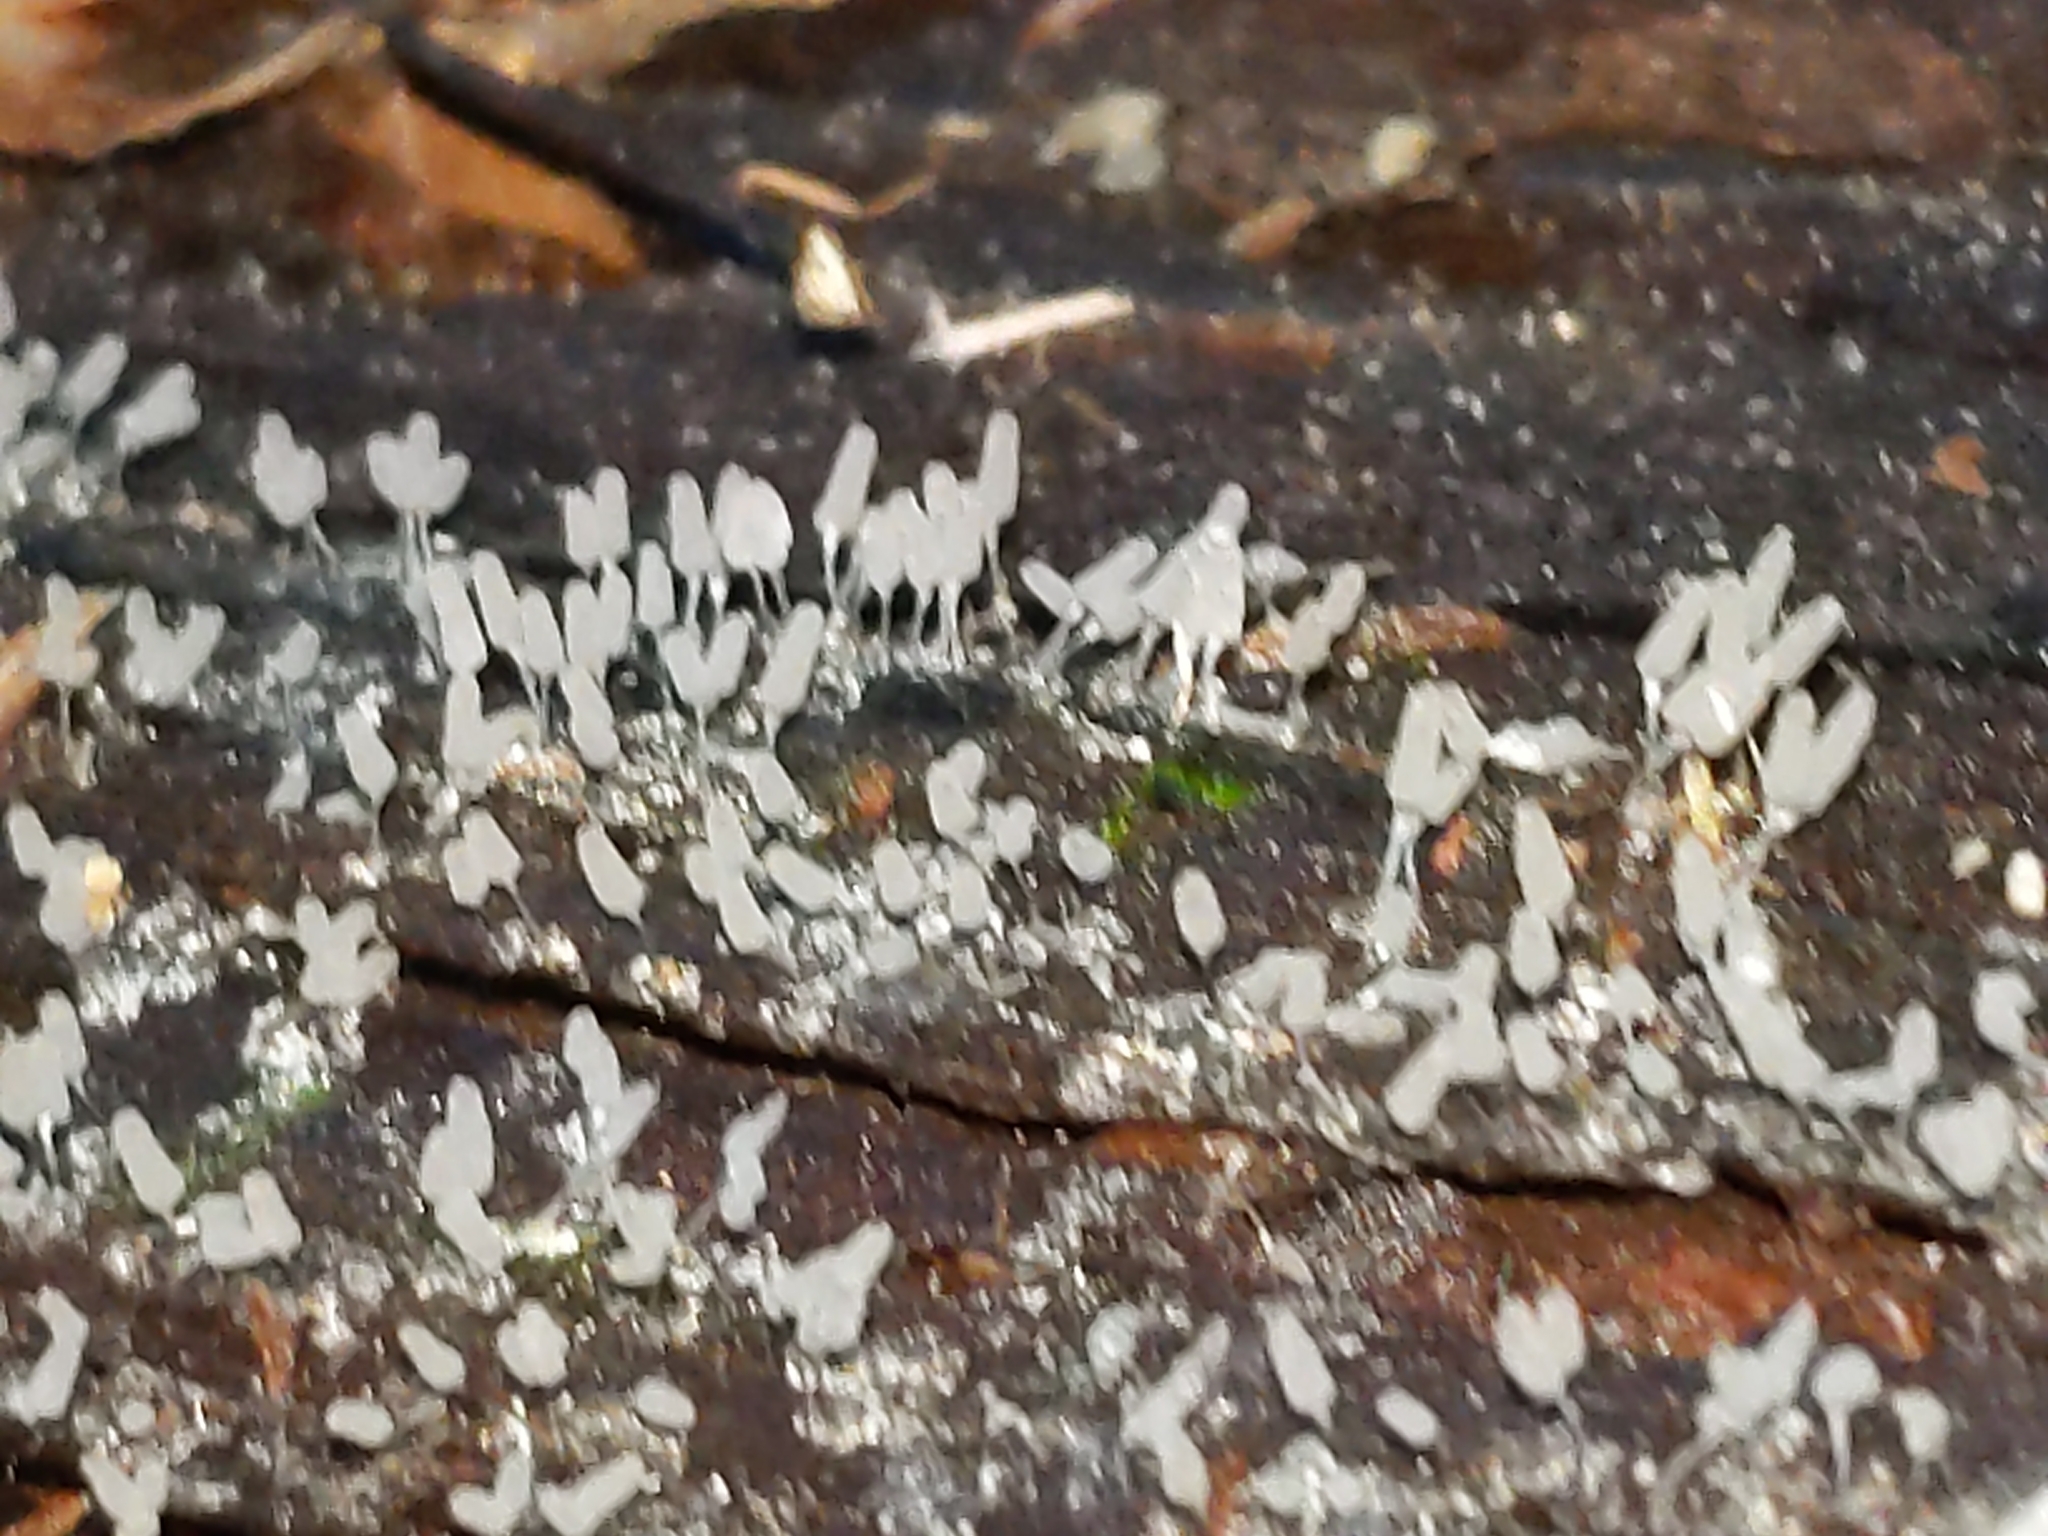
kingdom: Protozoa
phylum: Mycetozoa
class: Myxomycetes
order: Trichiales
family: Arcyriaceae
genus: Arcyria
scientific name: Arcyria cinerea
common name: White carnival candy slime mold
